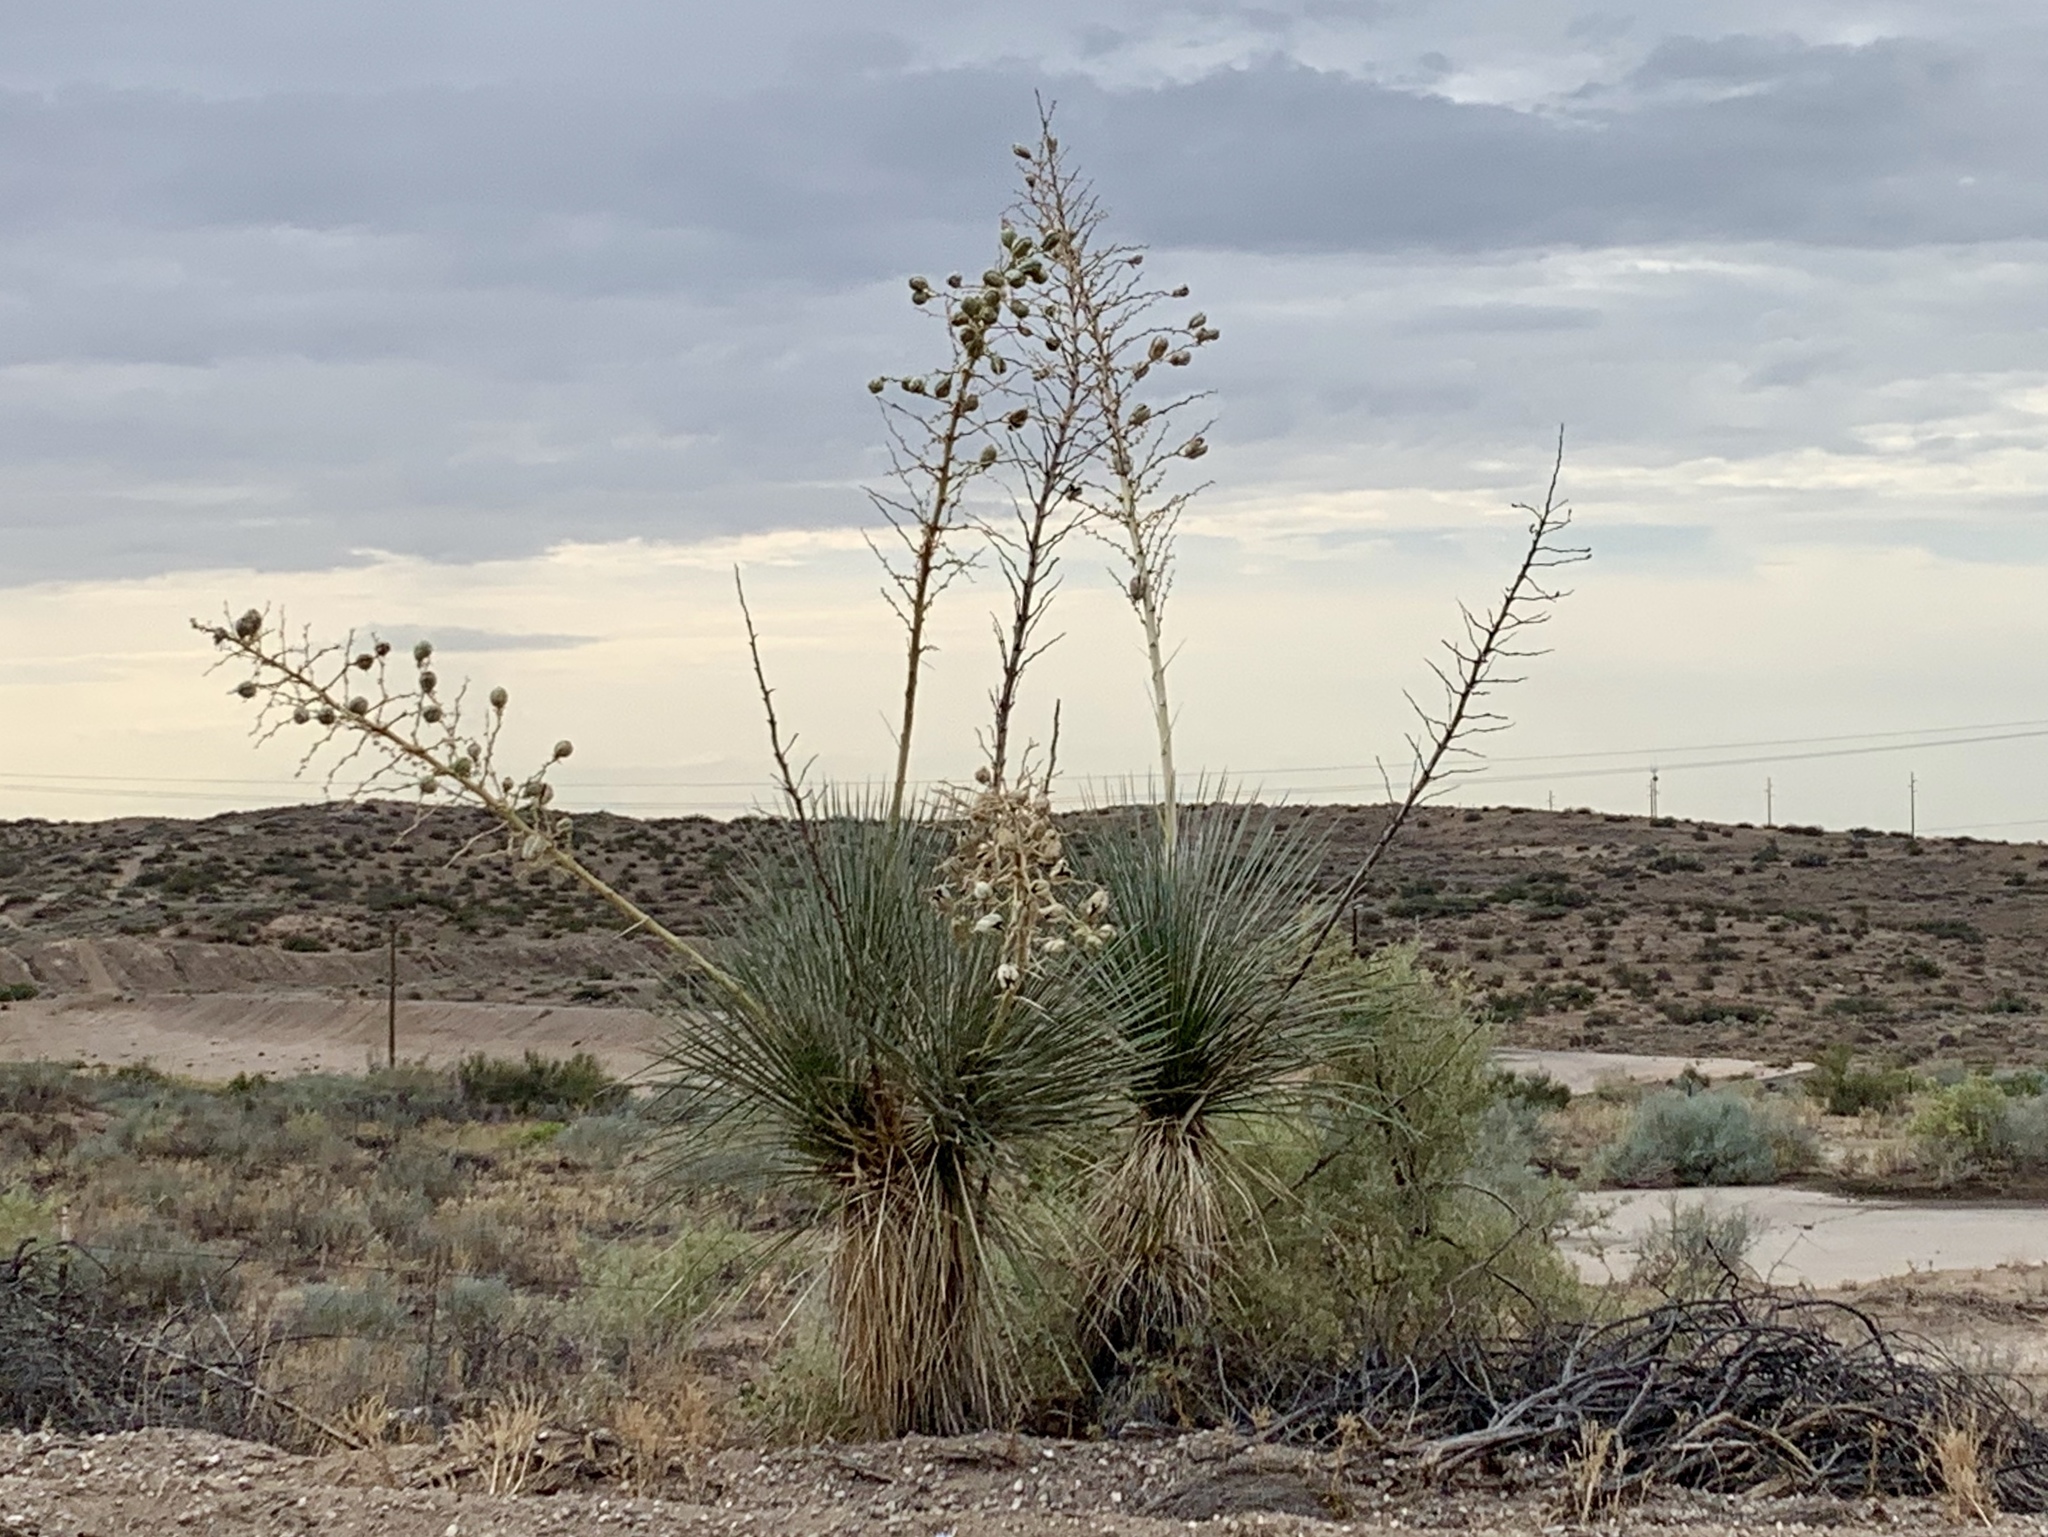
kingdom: Plantae
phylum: Tracheophyta
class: Liliopsida
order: Asparagales
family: Asparagaceae
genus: Yucca
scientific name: Yucca elata
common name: Palmella
